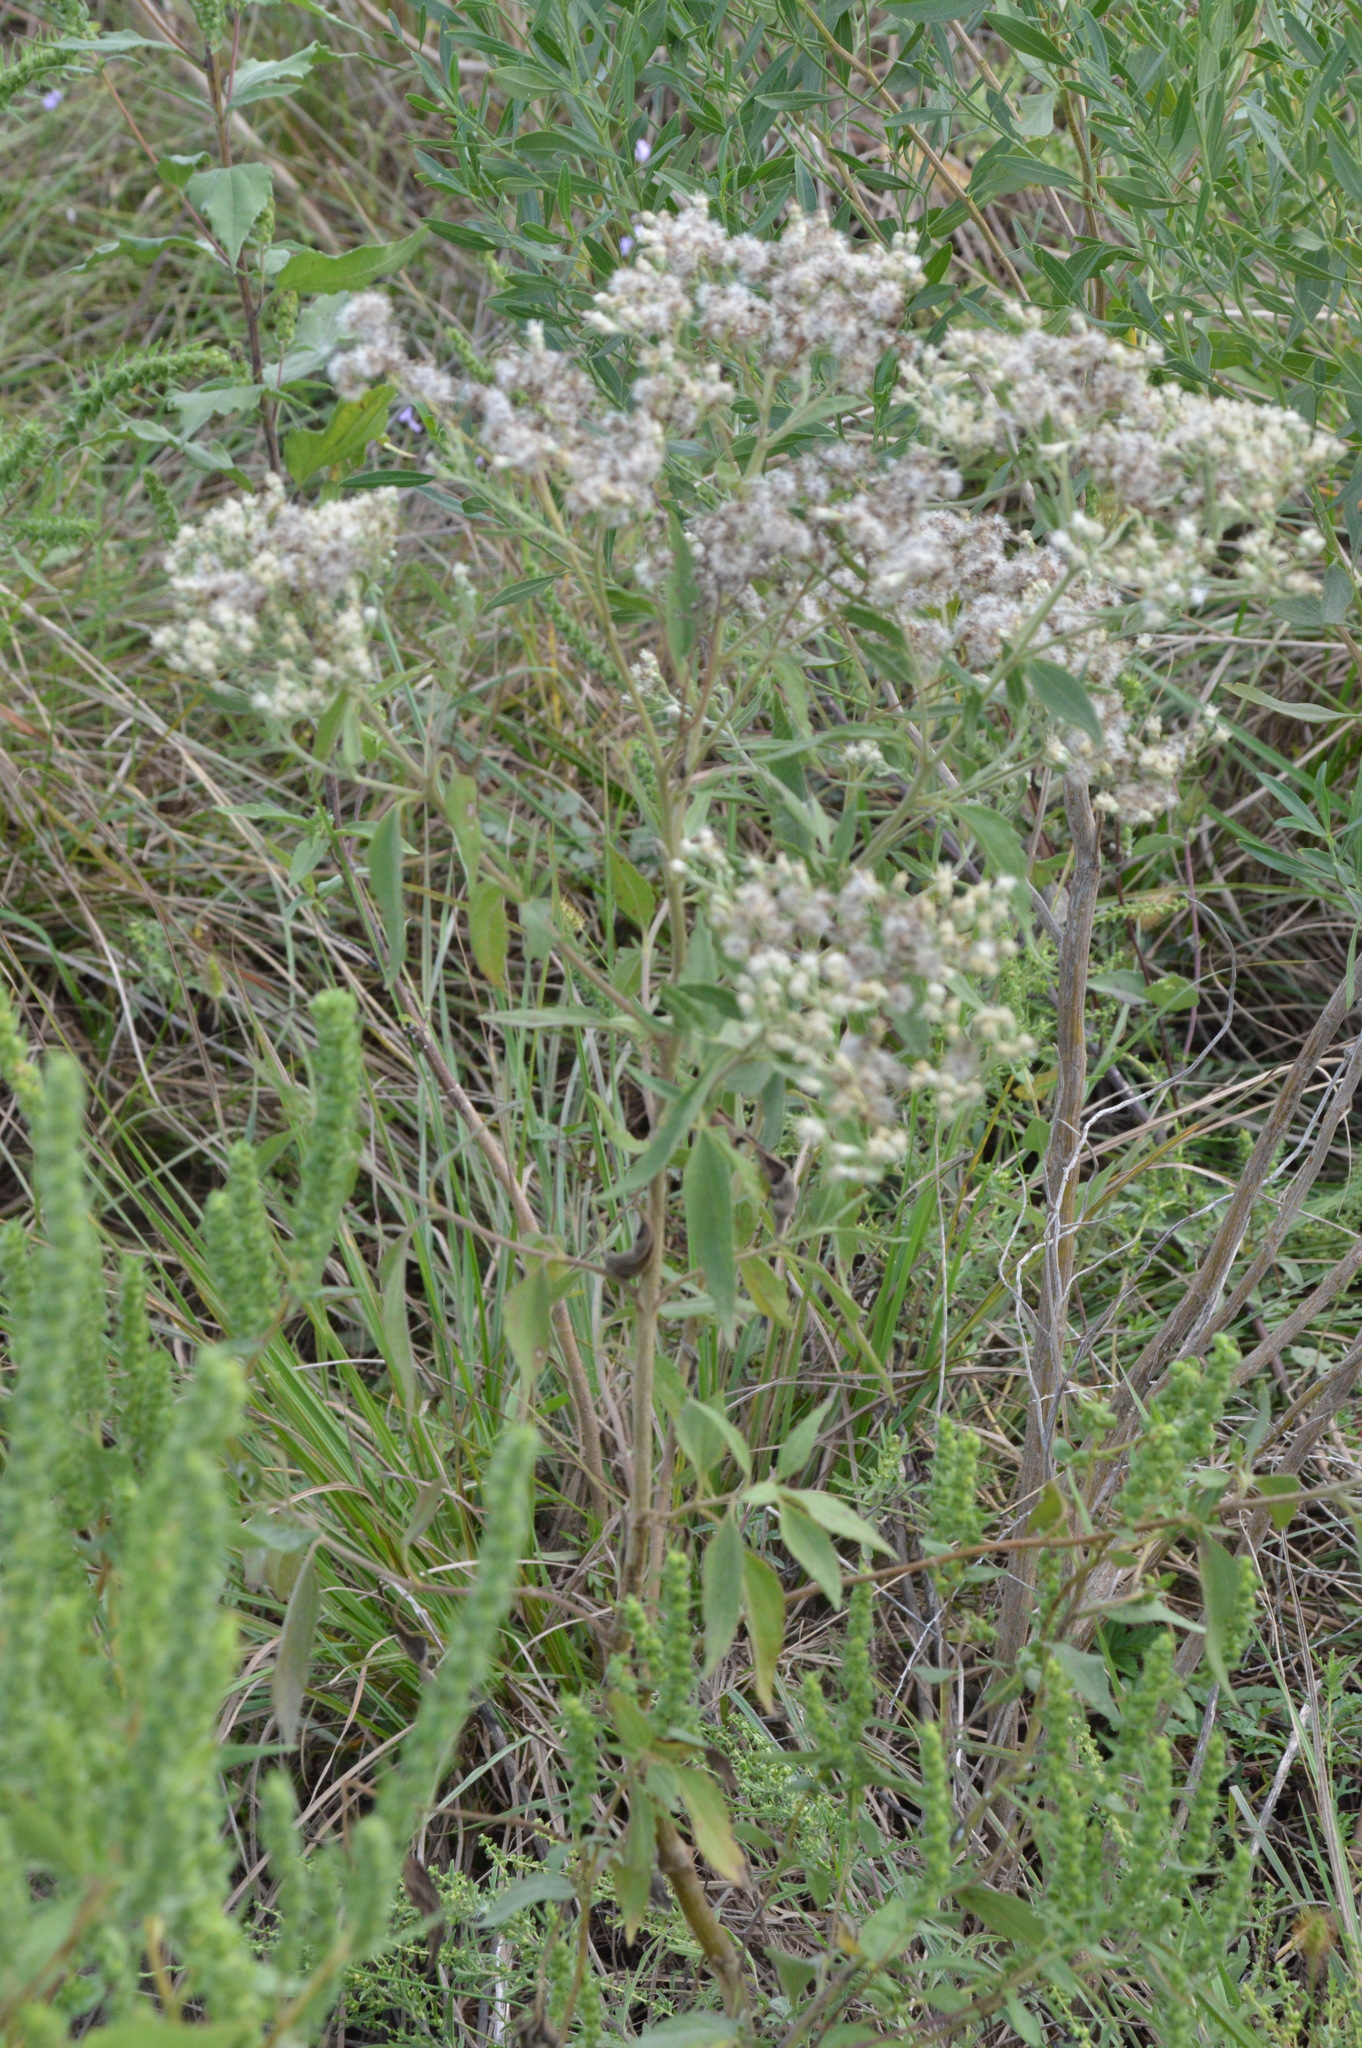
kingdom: Plantae
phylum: Tracheophyta
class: Magnoliopsida
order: Asterales
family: Asteraceae
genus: Eupatorium
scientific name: Eupatorium serotinum
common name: Late boneset
